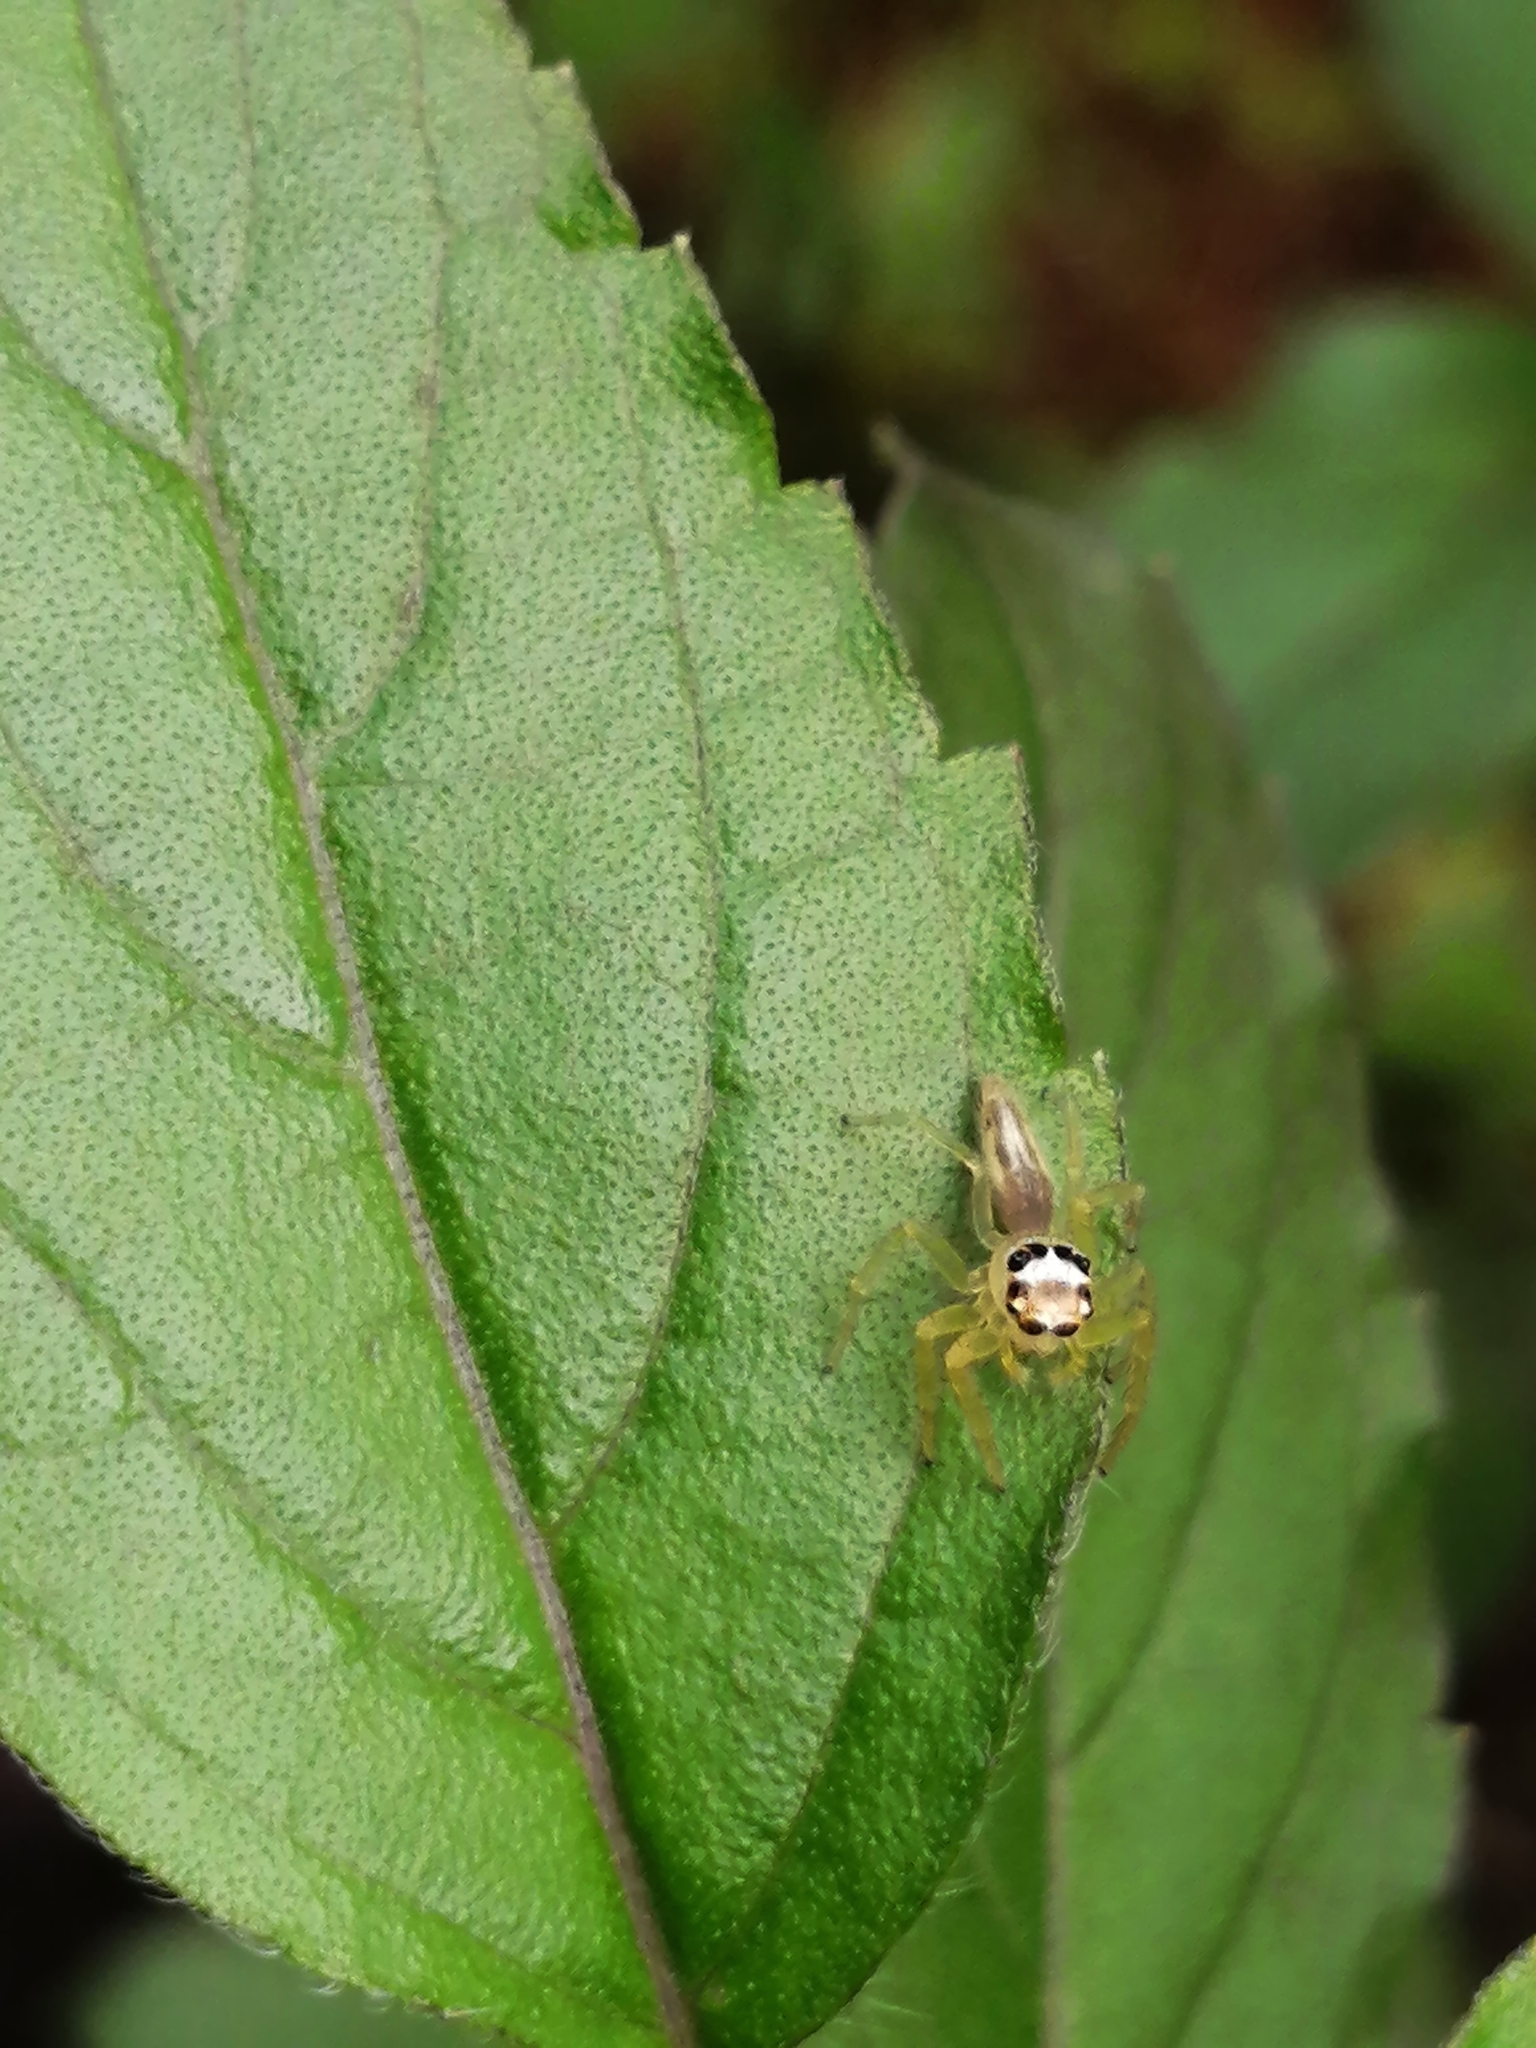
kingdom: Animalia
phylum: Arthropoda
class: Arachnida
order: Araneae
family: Salticidae
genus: Telamonia
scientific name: Telamonia dimidiata
